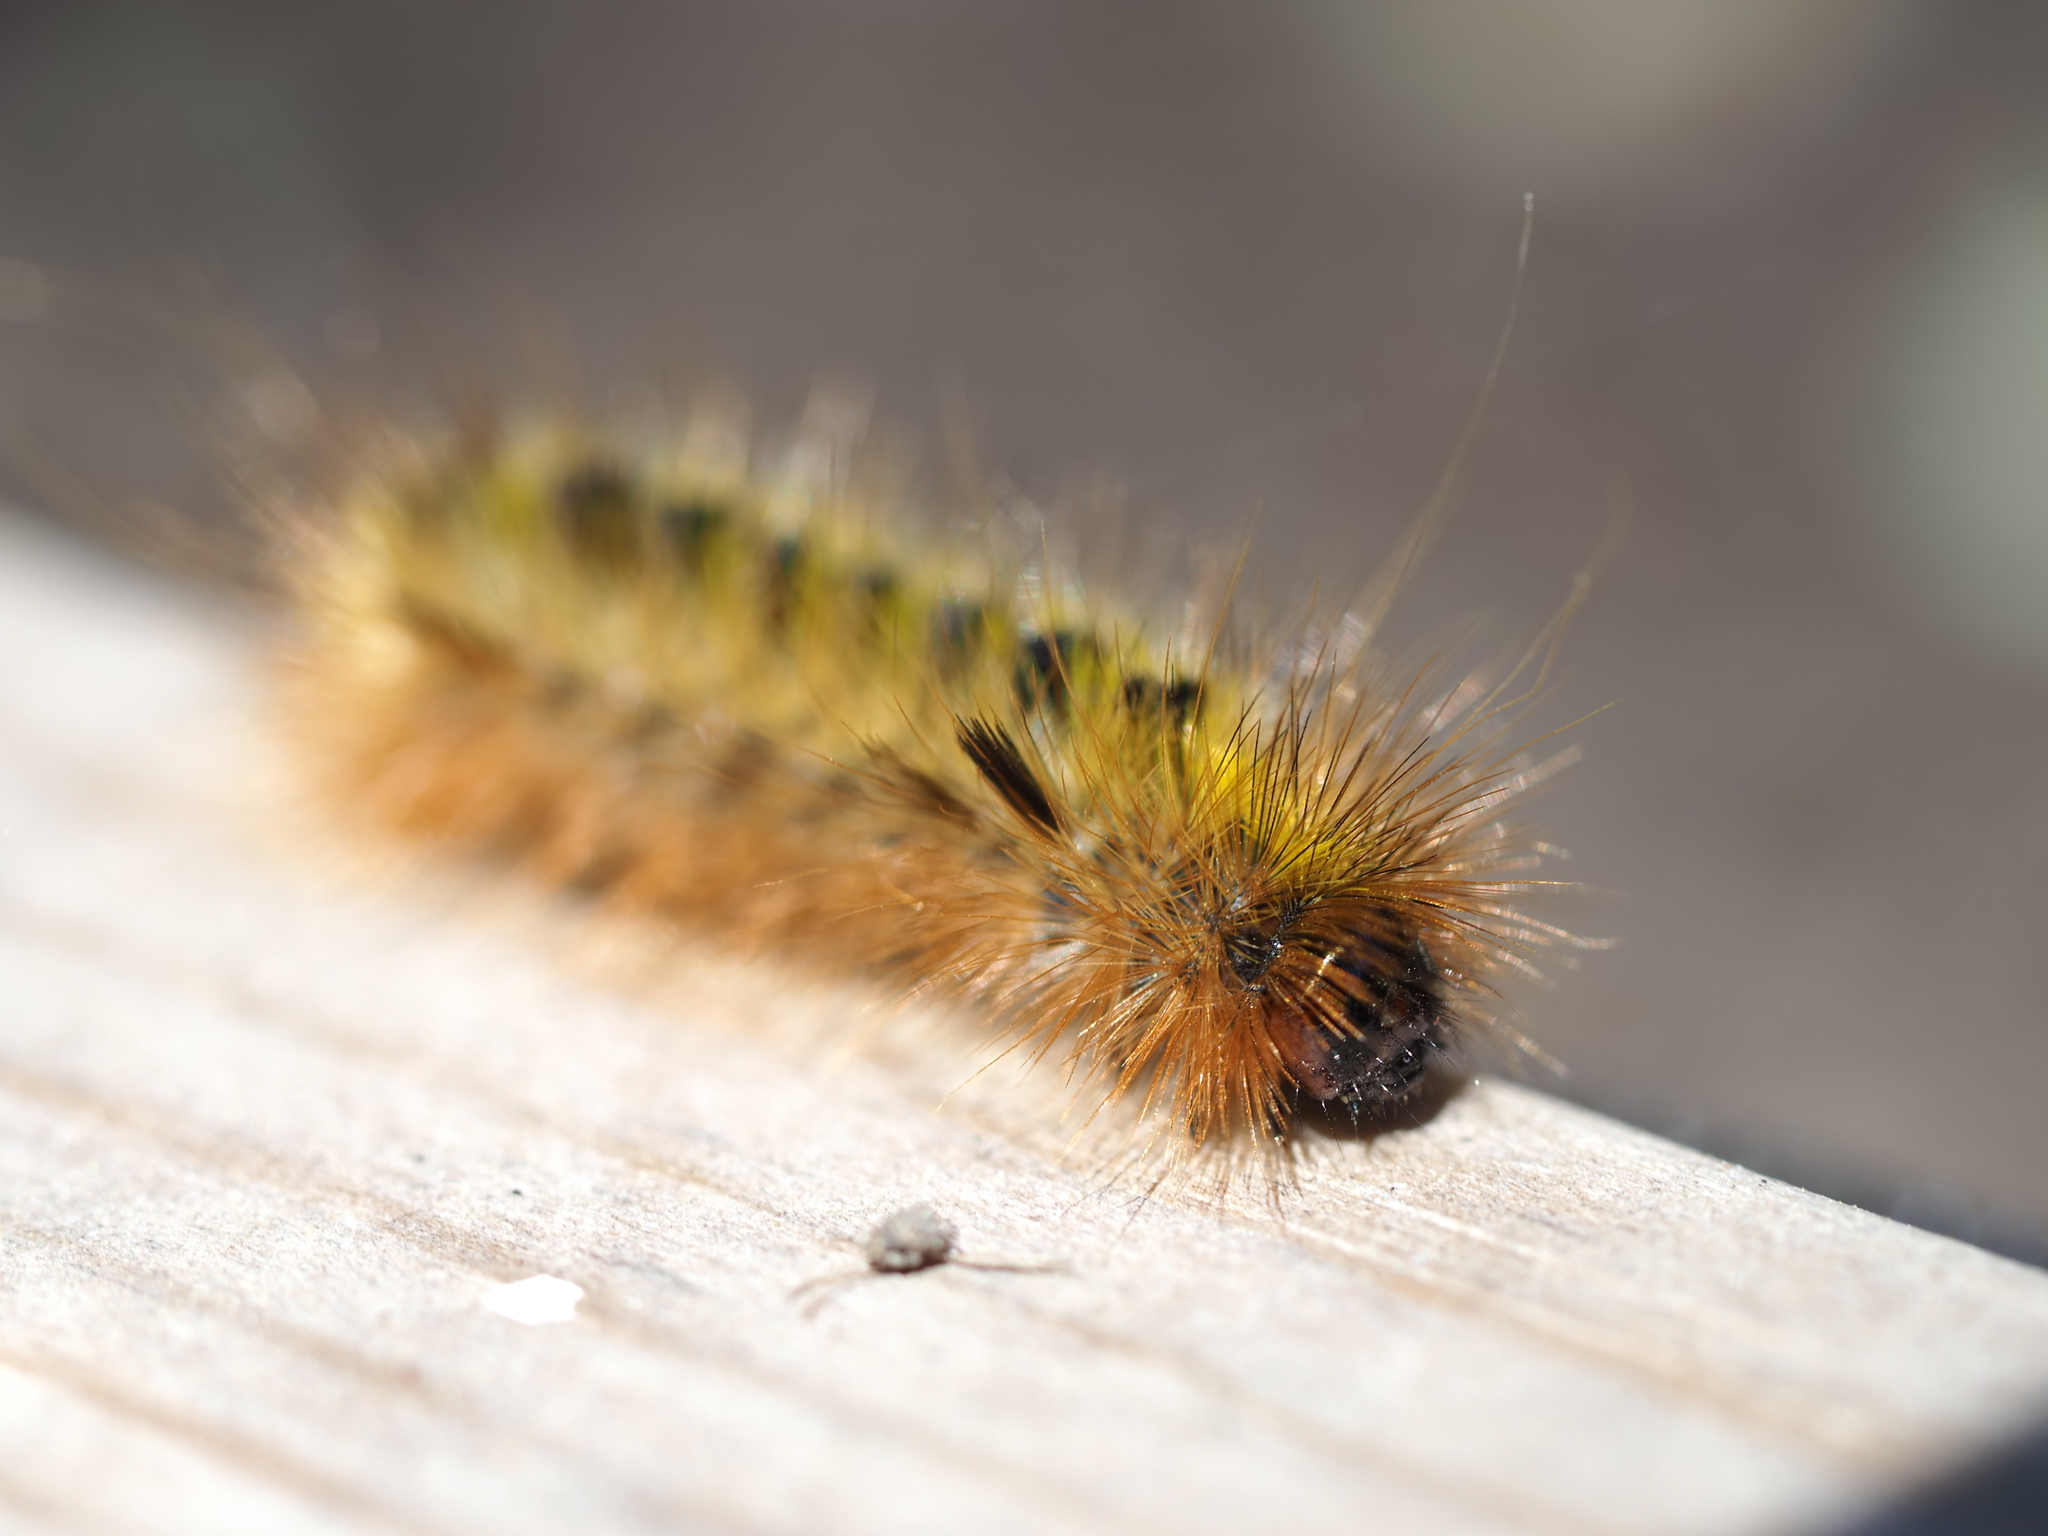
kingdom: Animalia
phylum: Arthropoda
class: Insecta
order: Lepidoptera
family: Erebidae
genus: Lophocampa
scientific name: Lophocampa argentata
